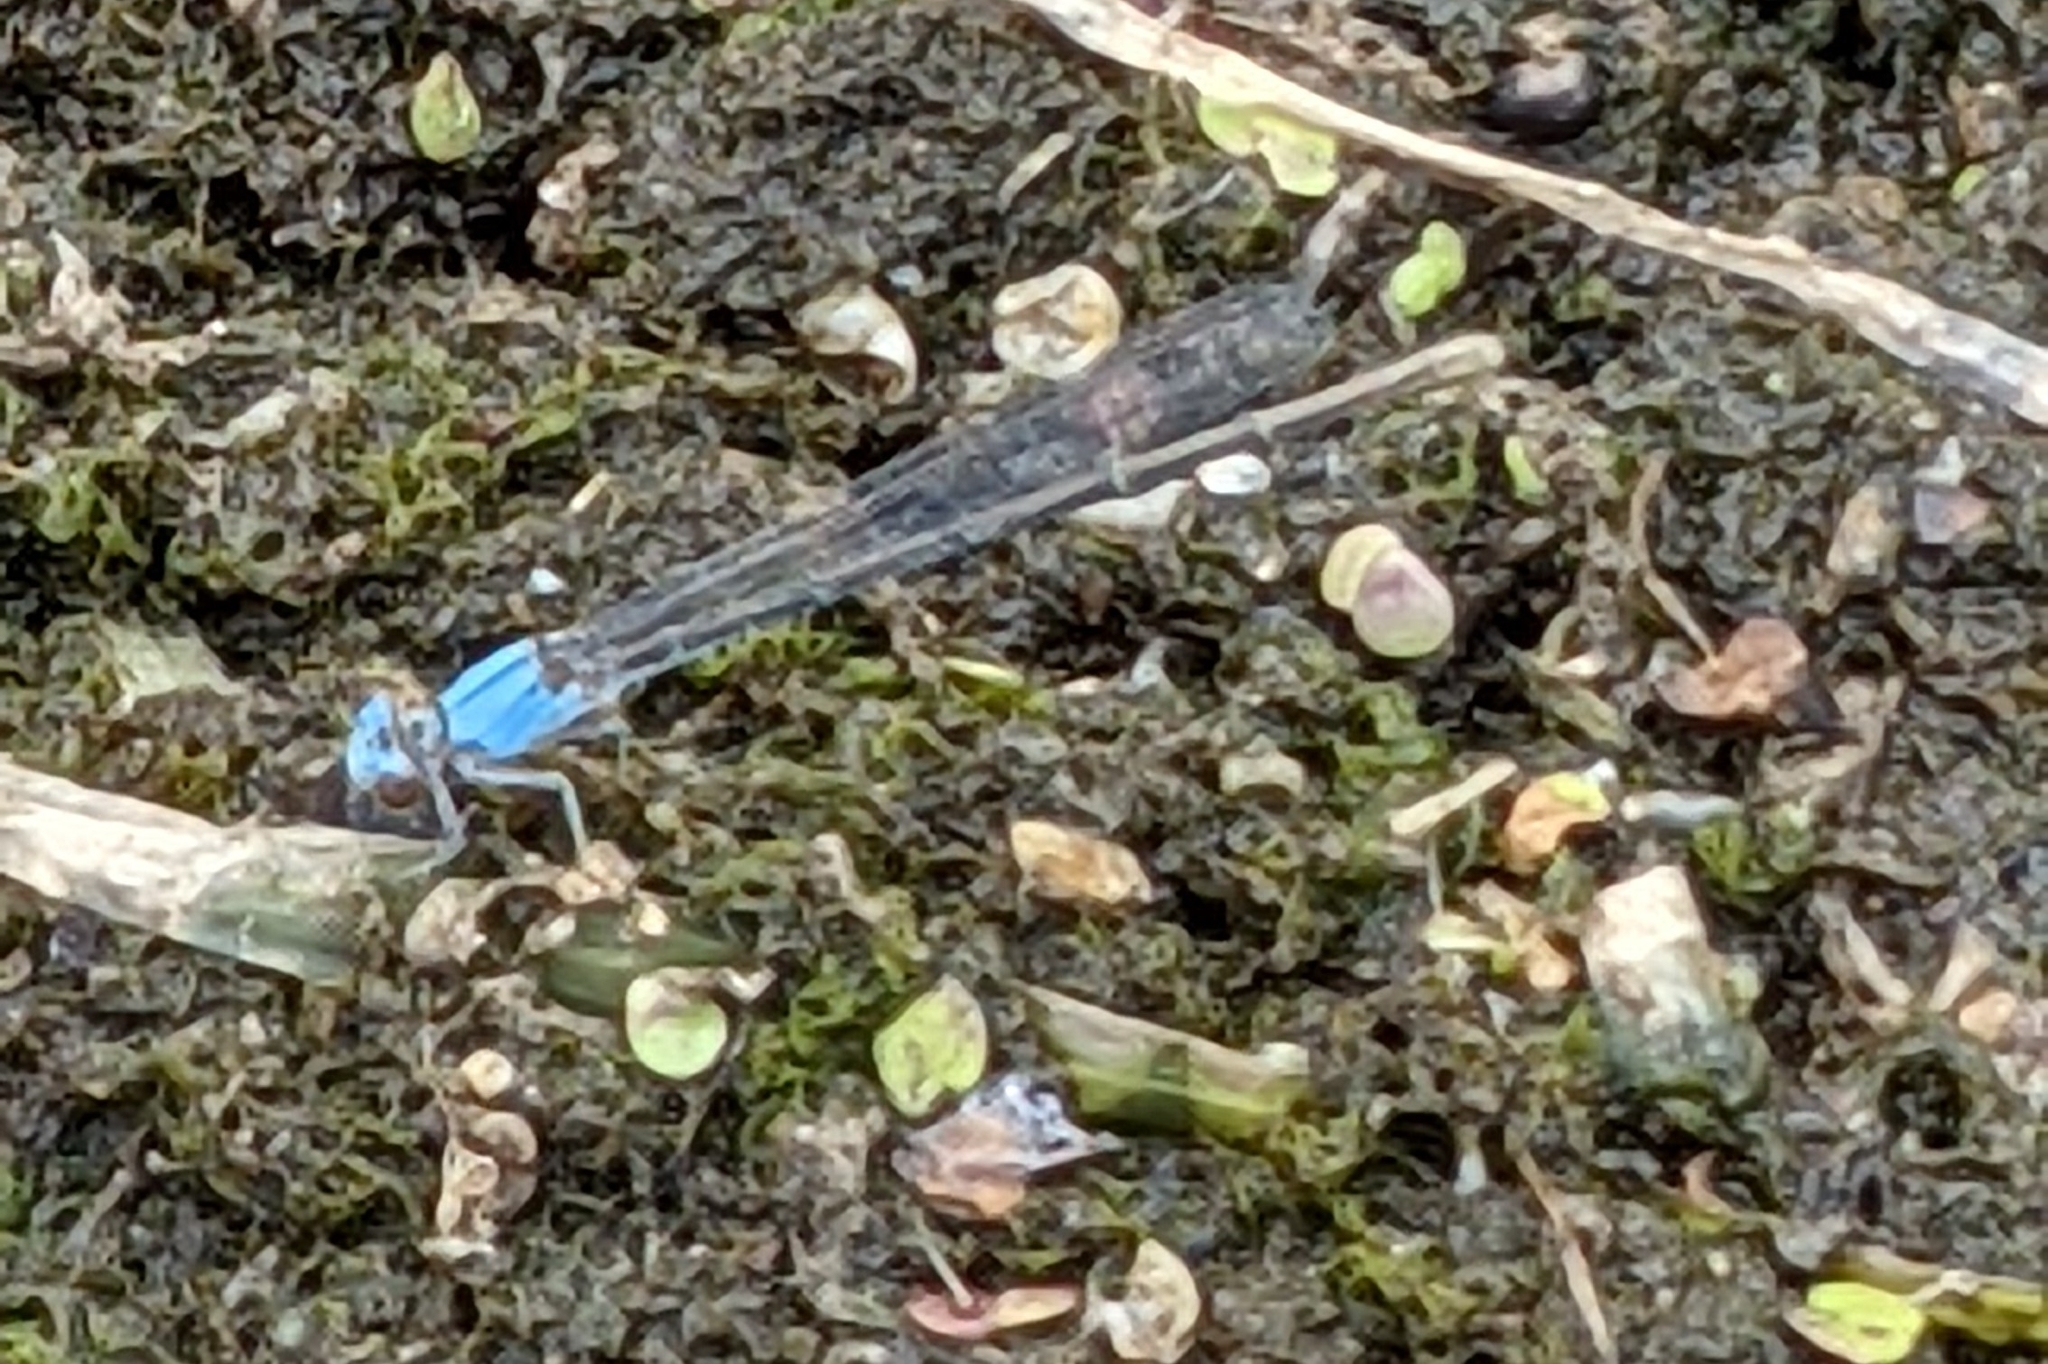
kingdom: Animalia
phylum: Arthropoda
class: Insecta
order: Odonata
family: Coenagrionidae
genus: Argia
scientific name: Argia apicalis
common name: Blue-fronted dancer
